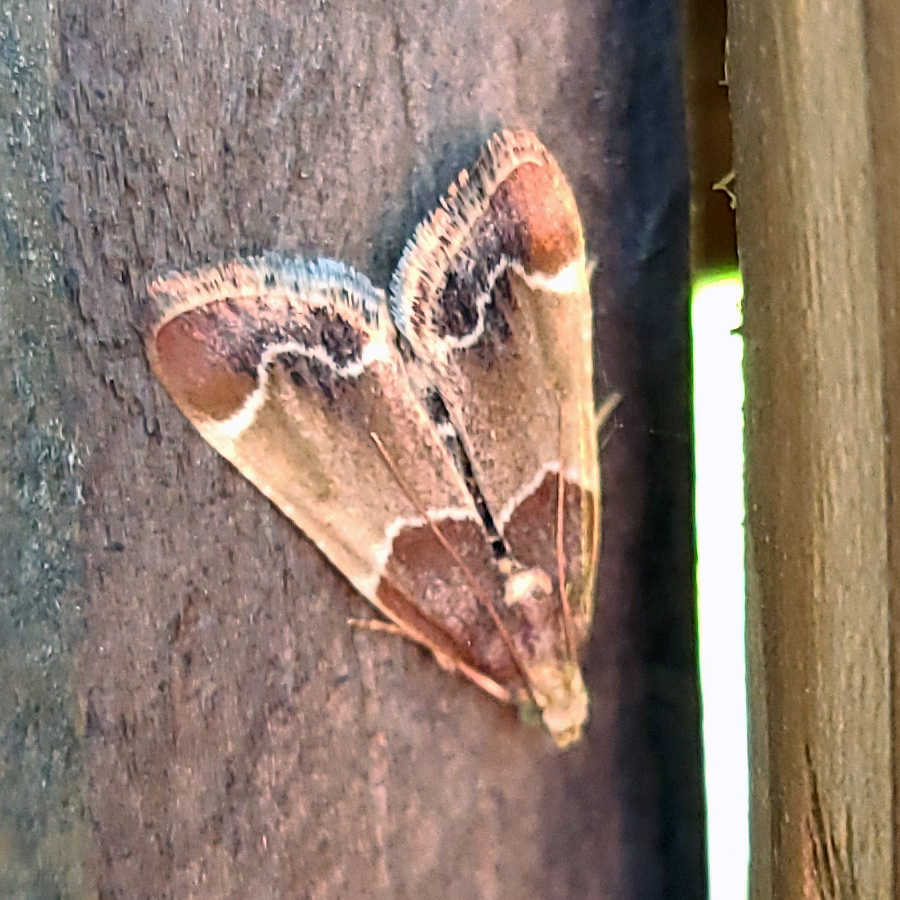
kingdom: Animalia
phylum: Arthropoda
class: Insecta
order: Lepidoptera
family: Pyralidae
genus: Pyralis
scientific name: Pyralis farinalis
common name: Meal moth
